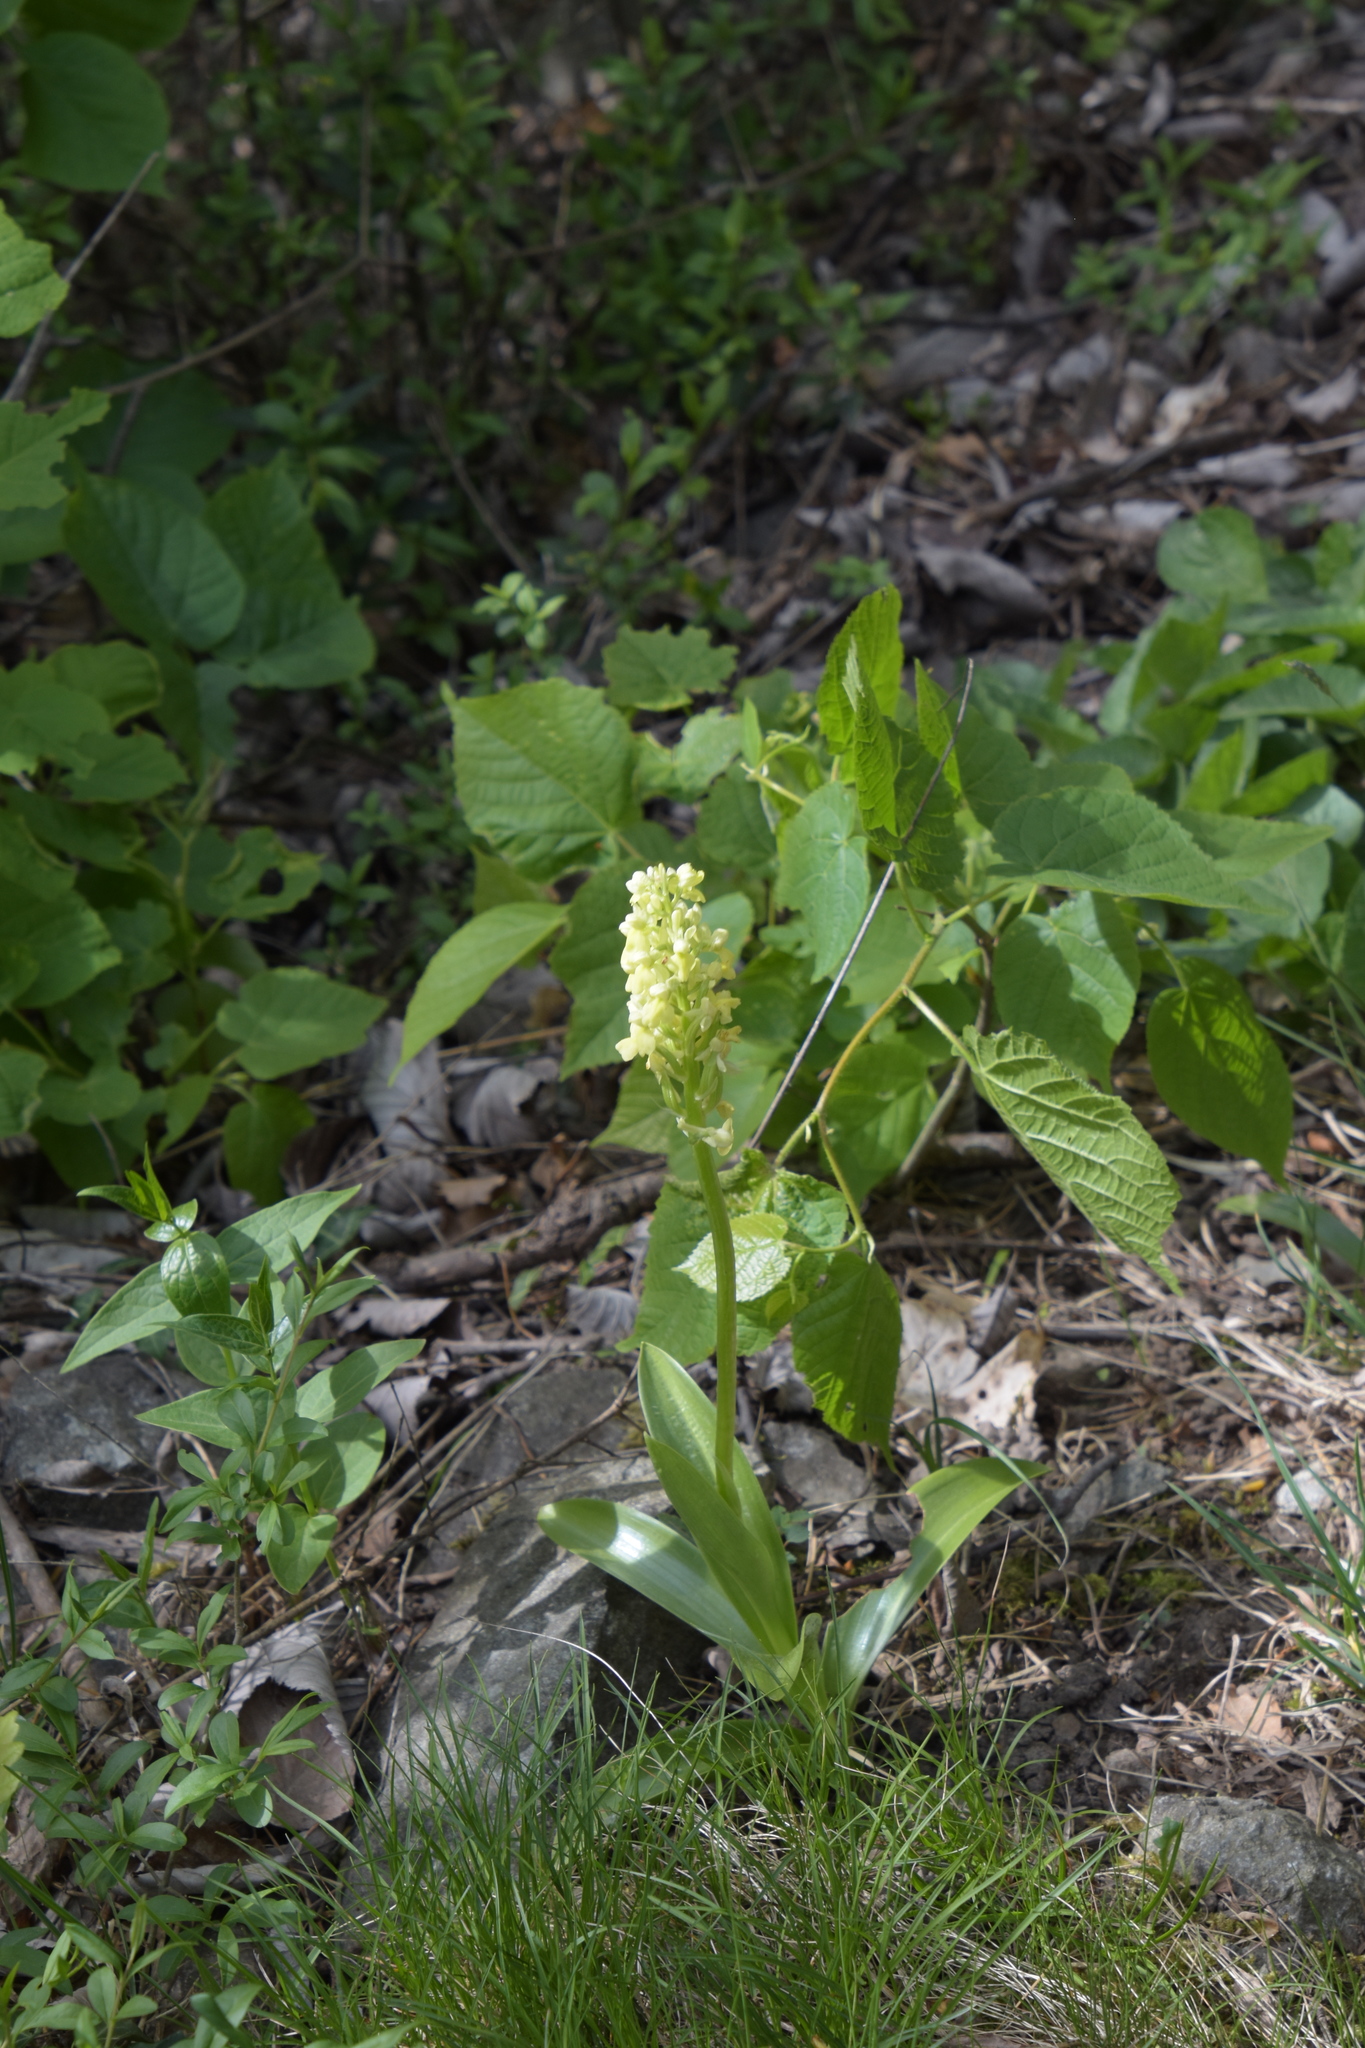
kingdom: Plantae
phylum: Tracheophyta
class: Liliopsida
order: Asparagales
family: Orchidaceae
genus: Orchis
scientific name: Orchis pallens
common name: Pale-flowered orchid
